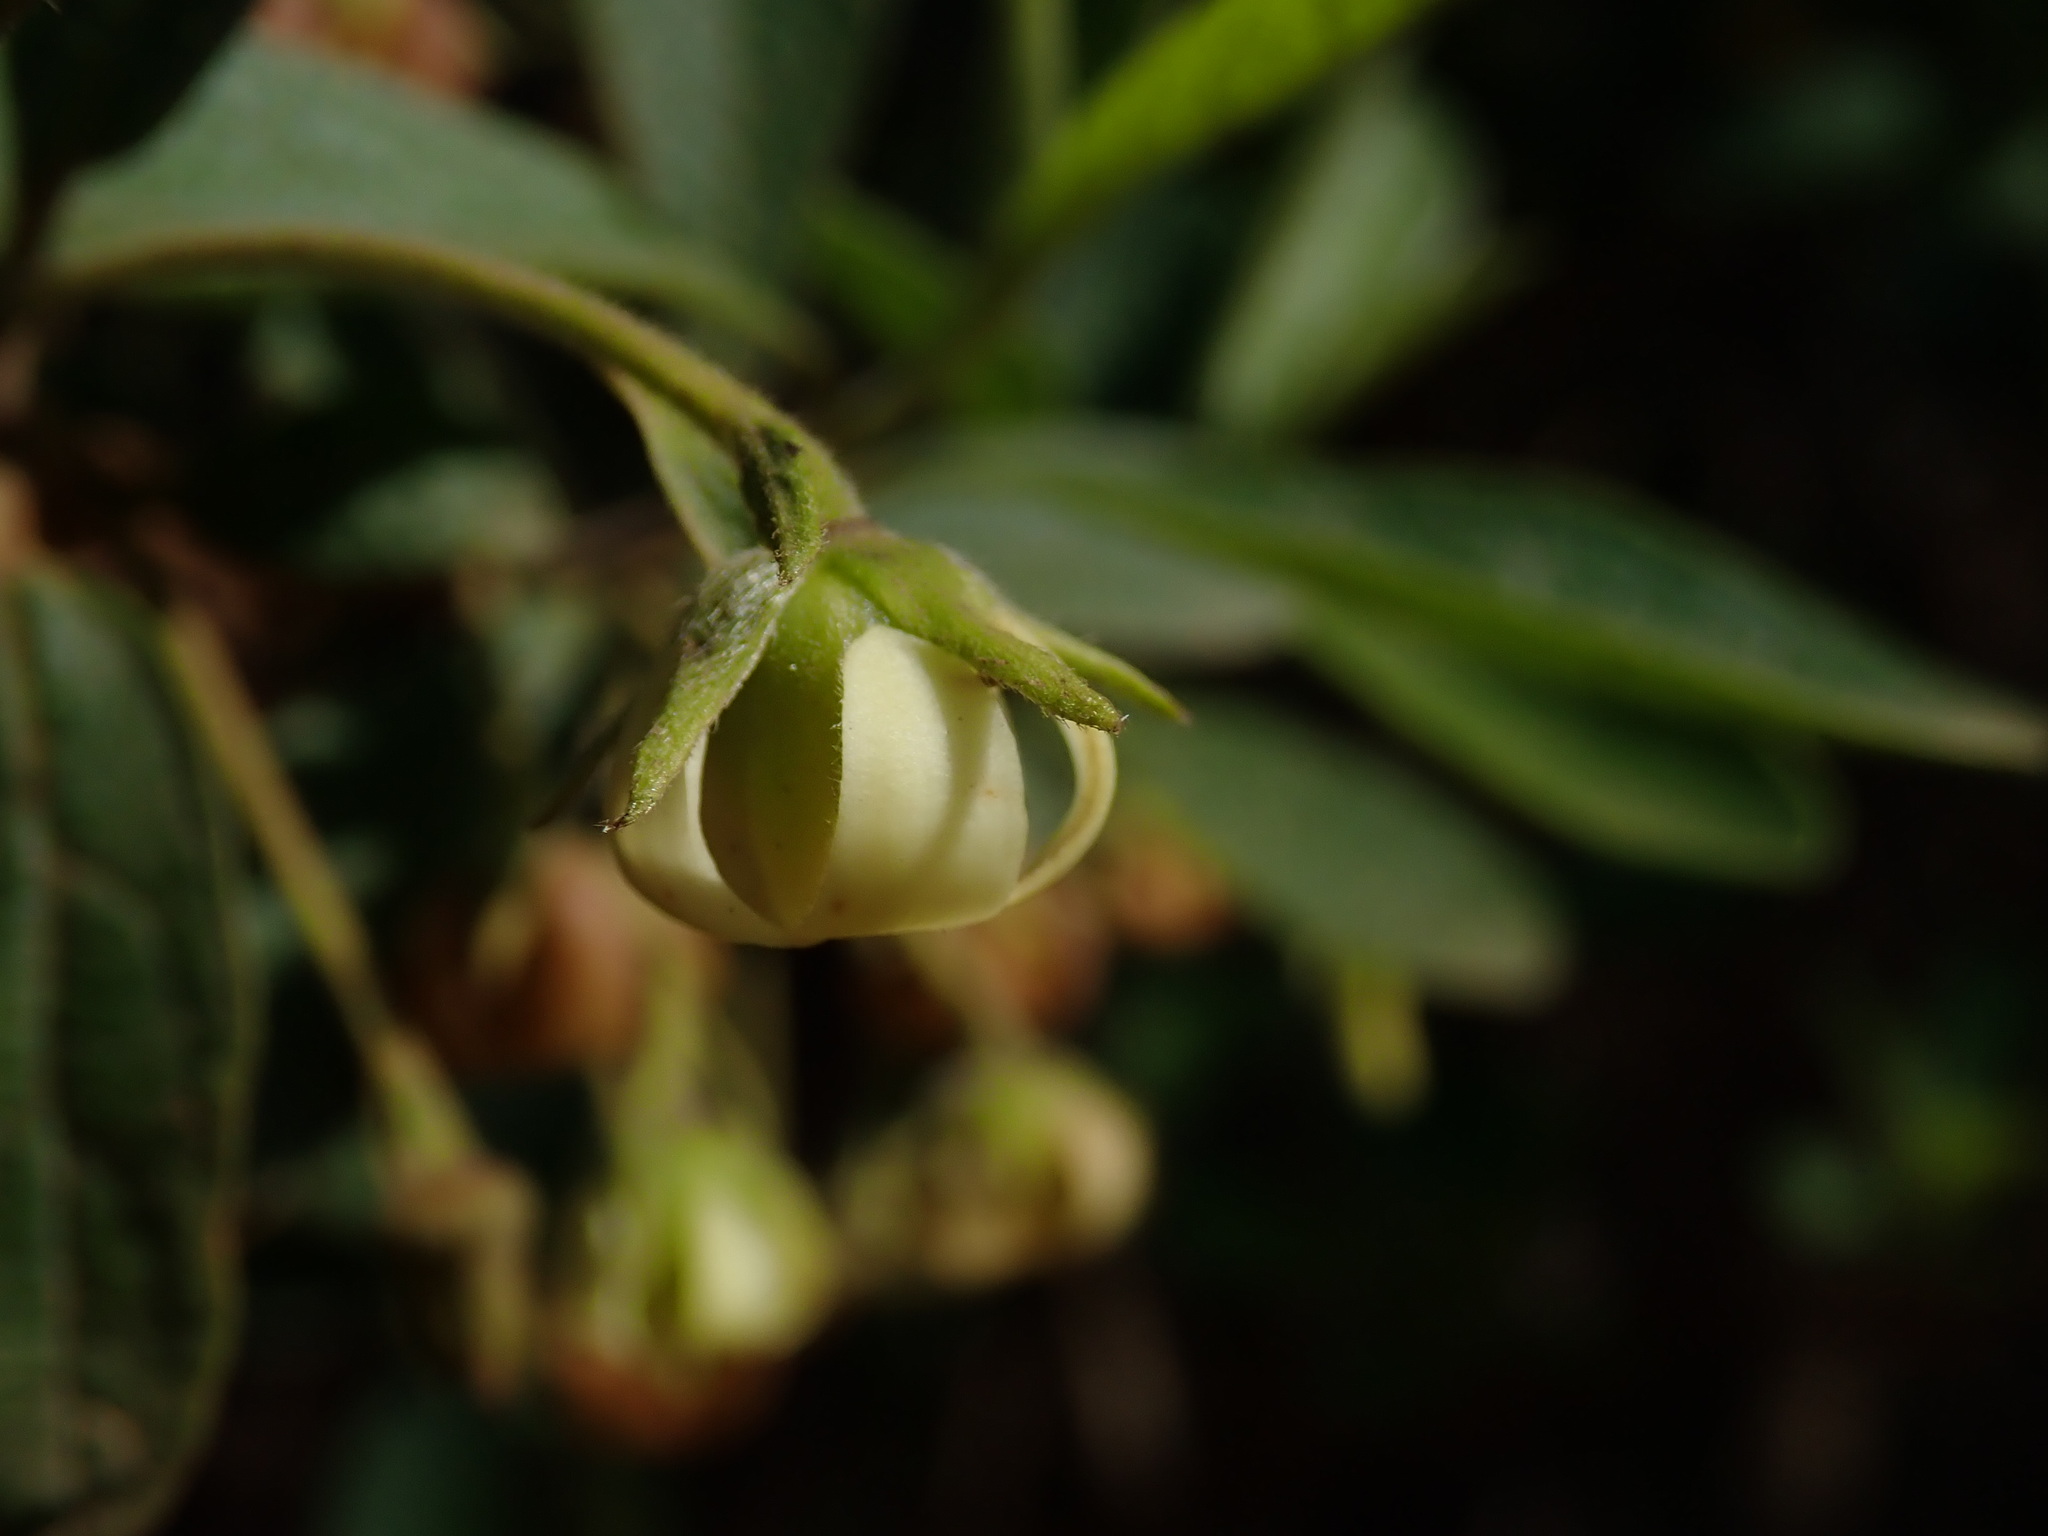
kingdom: Plantae
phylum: Tracheophyta
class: Magnoliopsida
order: Ericales
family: Ebenaceae
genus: Diospyros
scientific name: Diospyros lycioides
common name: Red star apple
